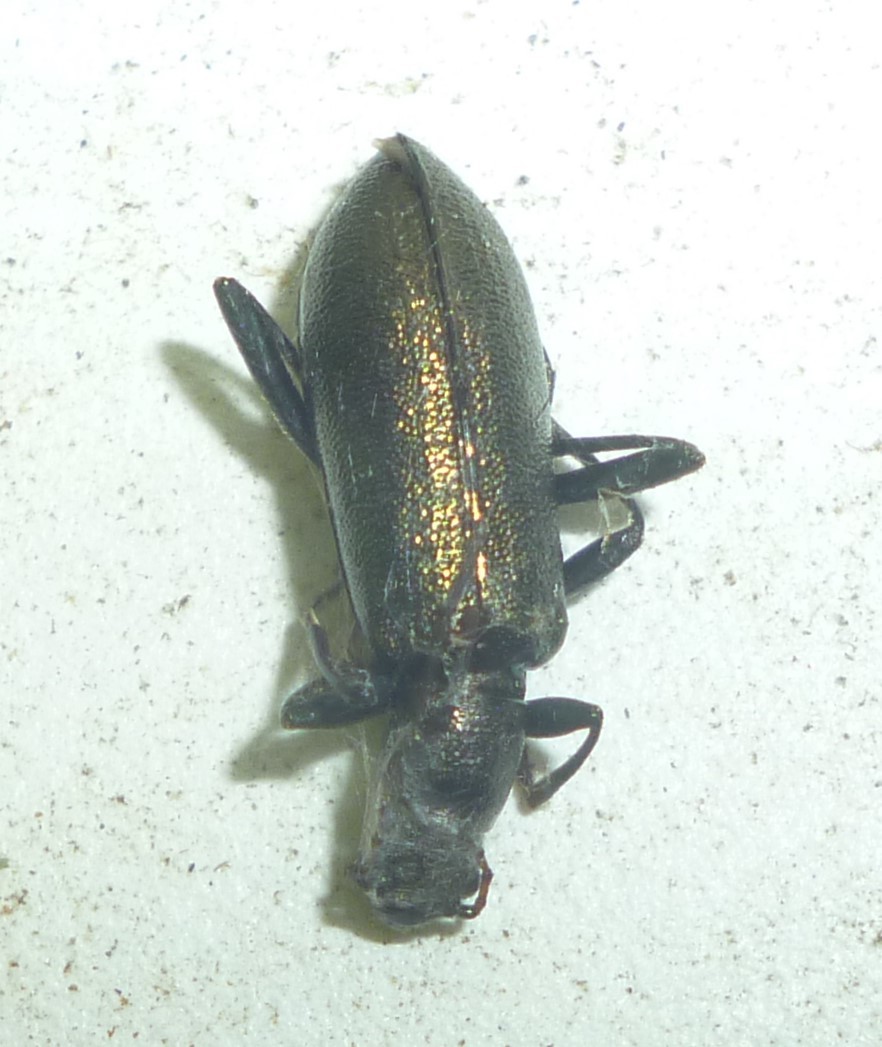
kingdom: Animalia
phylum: Arthropoda
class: Insecta
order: Coleoptera
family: Tenebrionidae
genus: Arthromacra
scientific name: Arthromacra aenea
